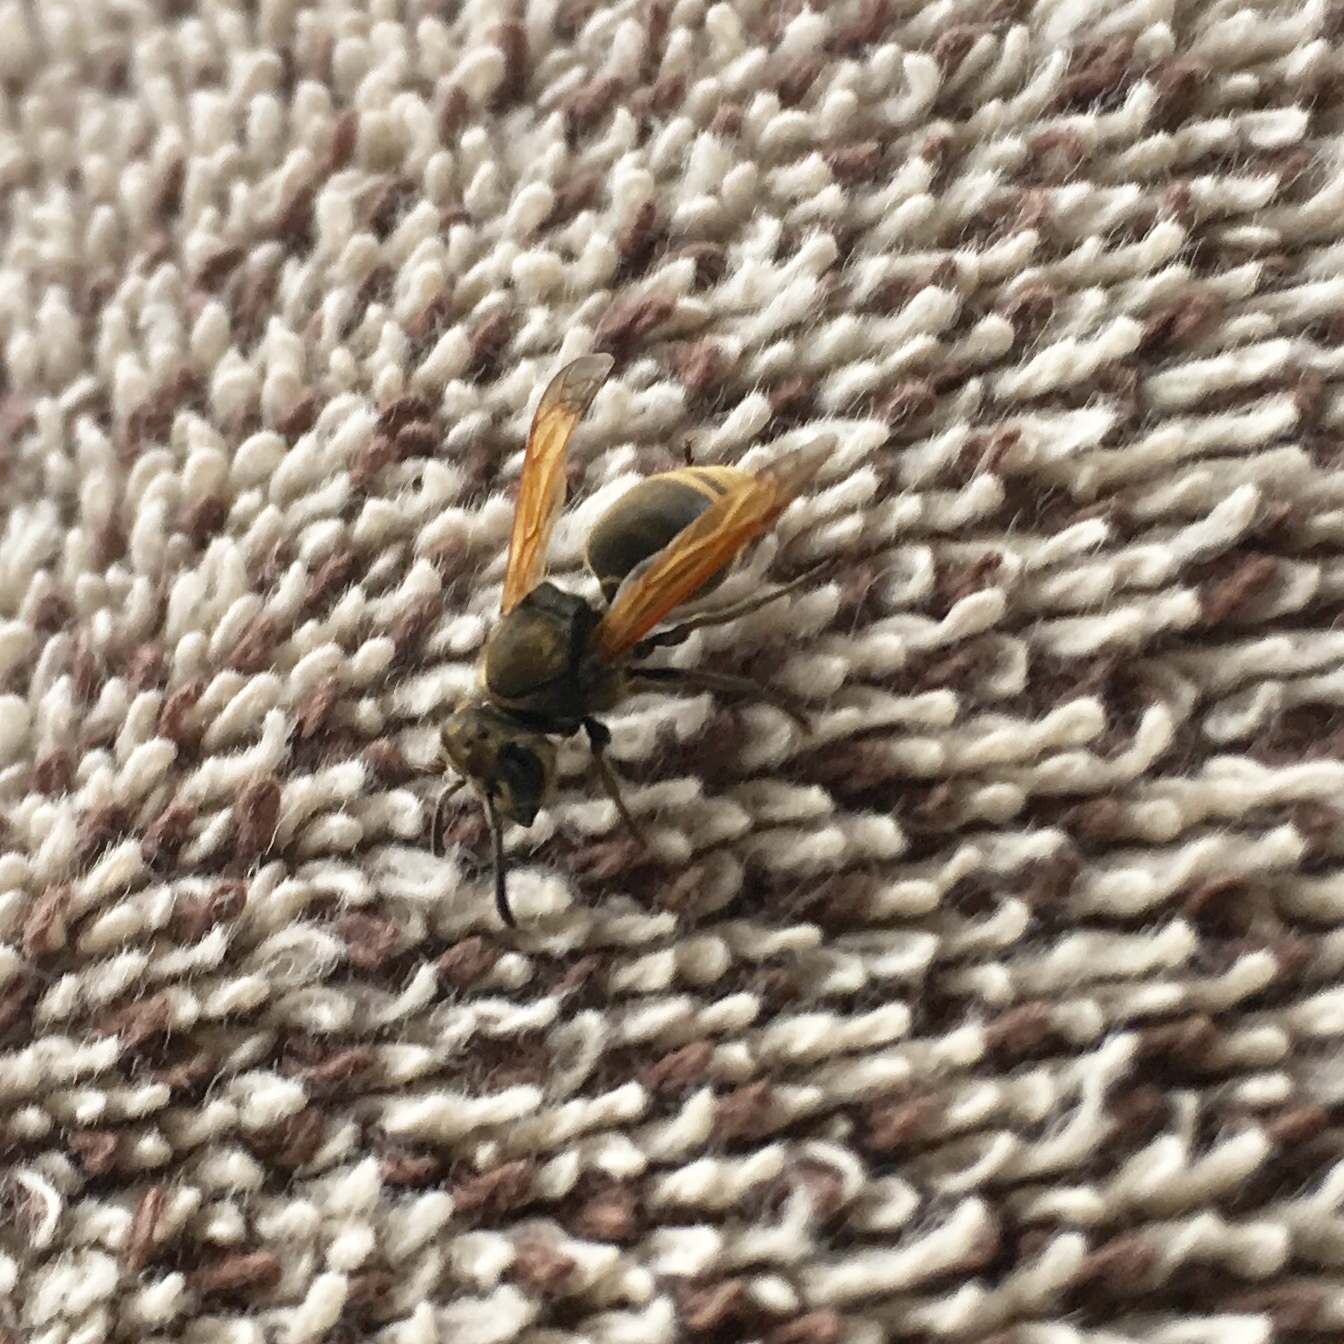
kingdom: Animalia
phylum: Arthropoda
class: Insecta
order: Hymenoptera
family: Vespidae
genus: Brachygastra
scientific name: Brachygastra mellifica
